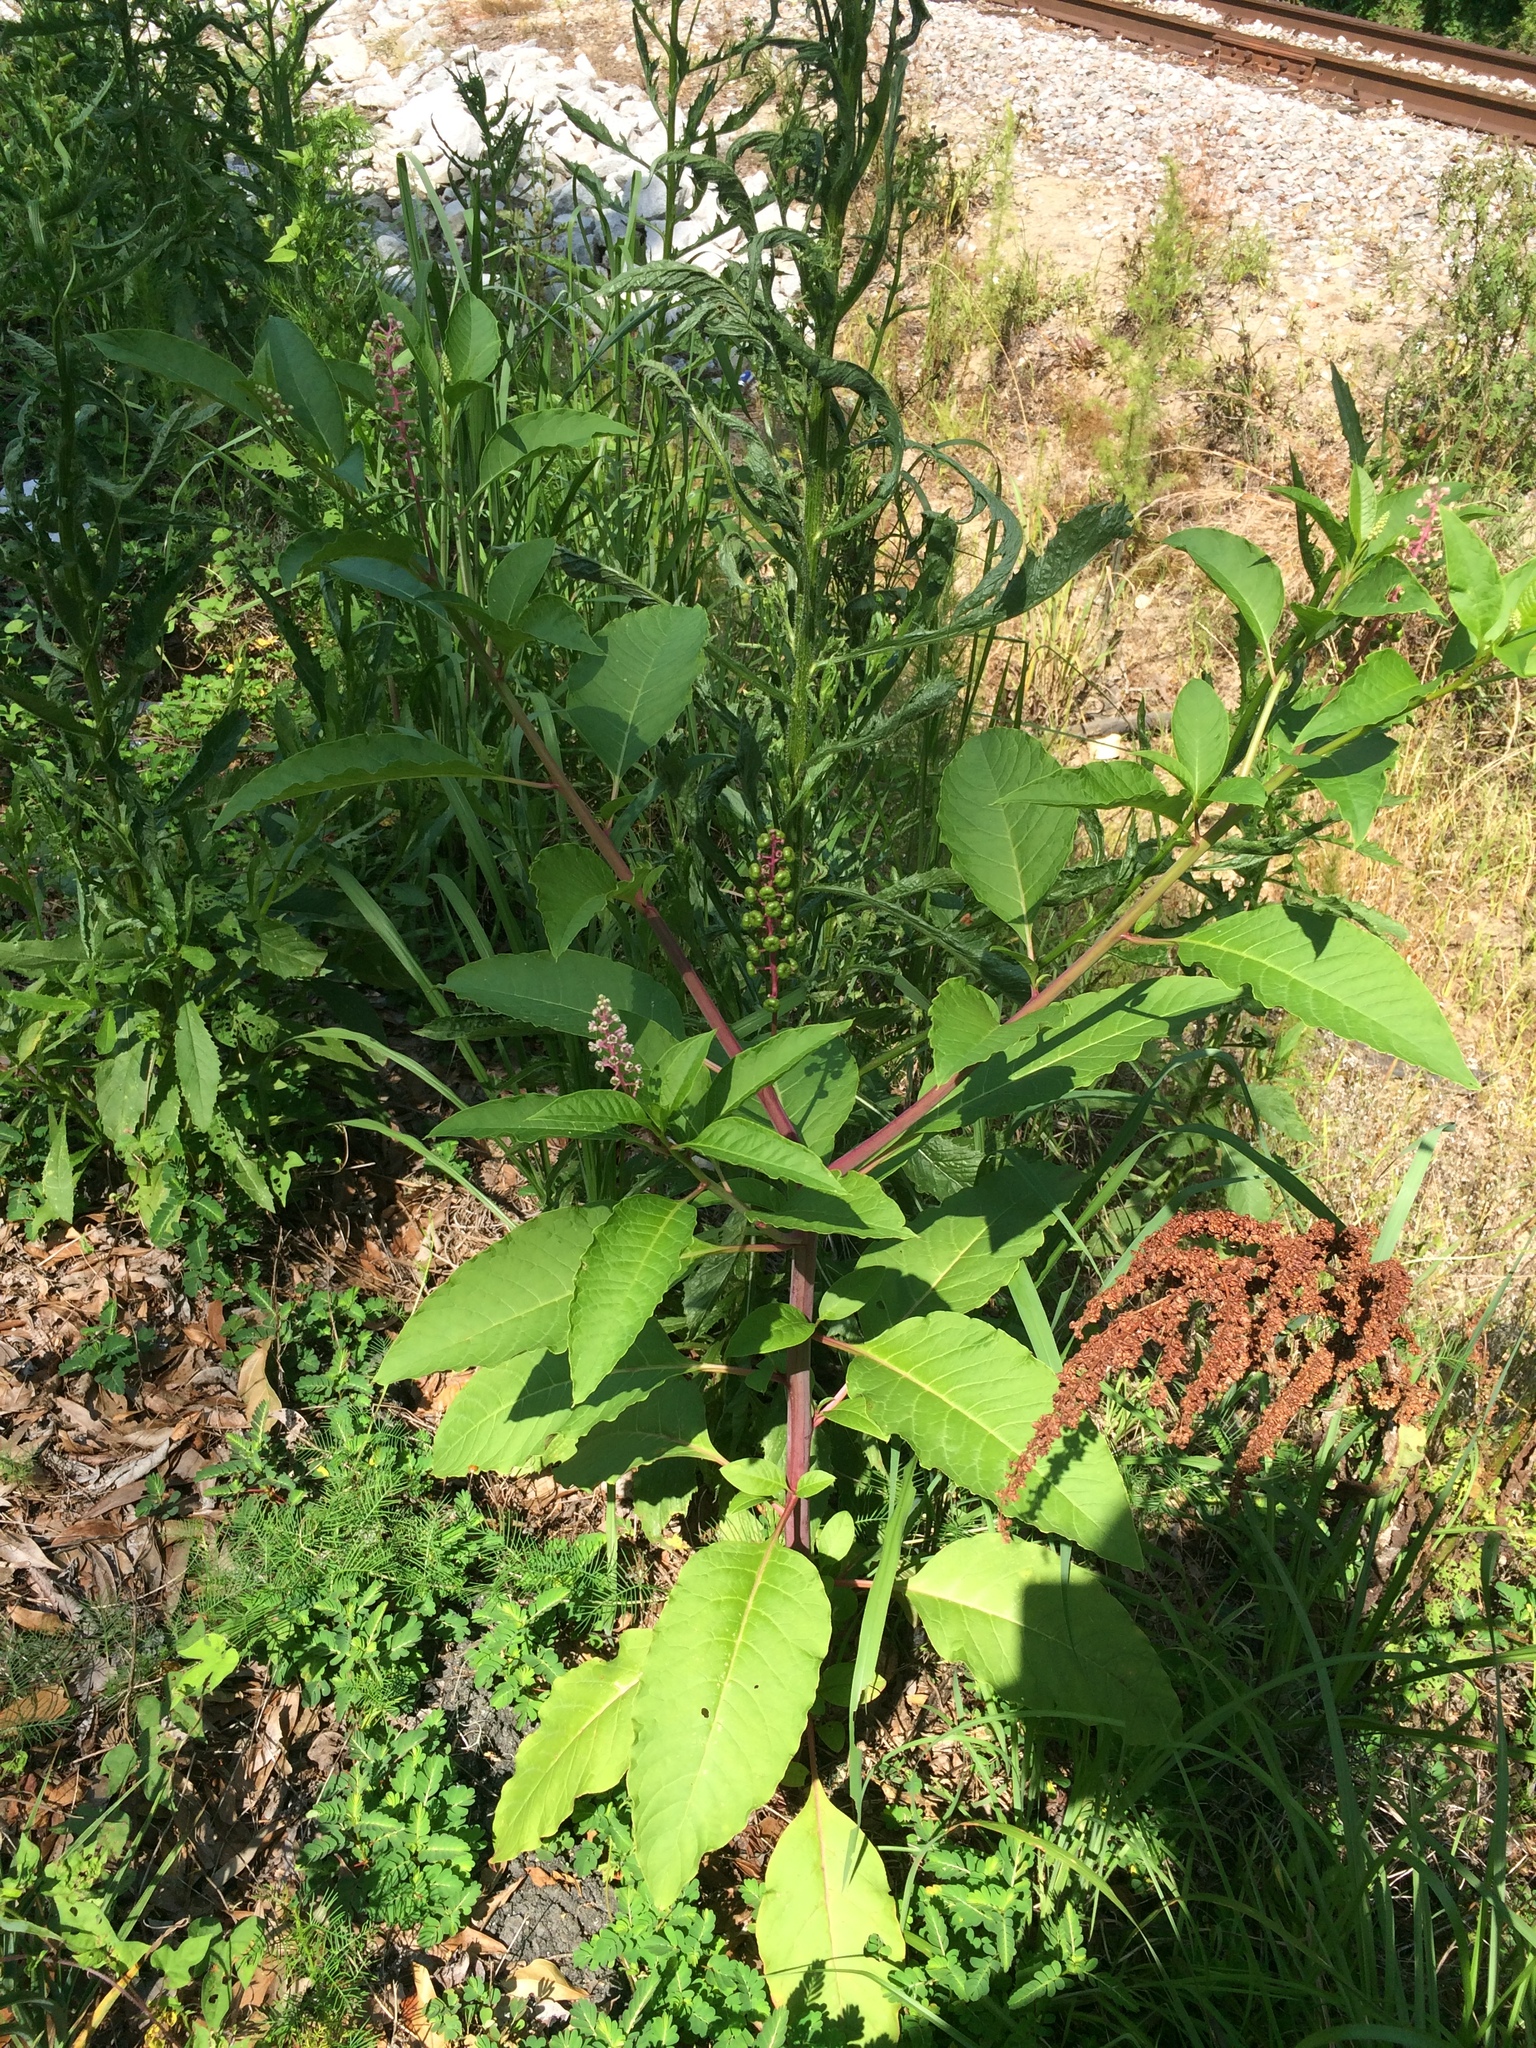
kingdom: Plantae
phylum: Tracheophyta
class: Magnoliopsida
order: Caryophyllales
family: Phytolaccaceae
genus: Phytolacca
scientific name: Phytolacca americana
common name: American pokeweed
